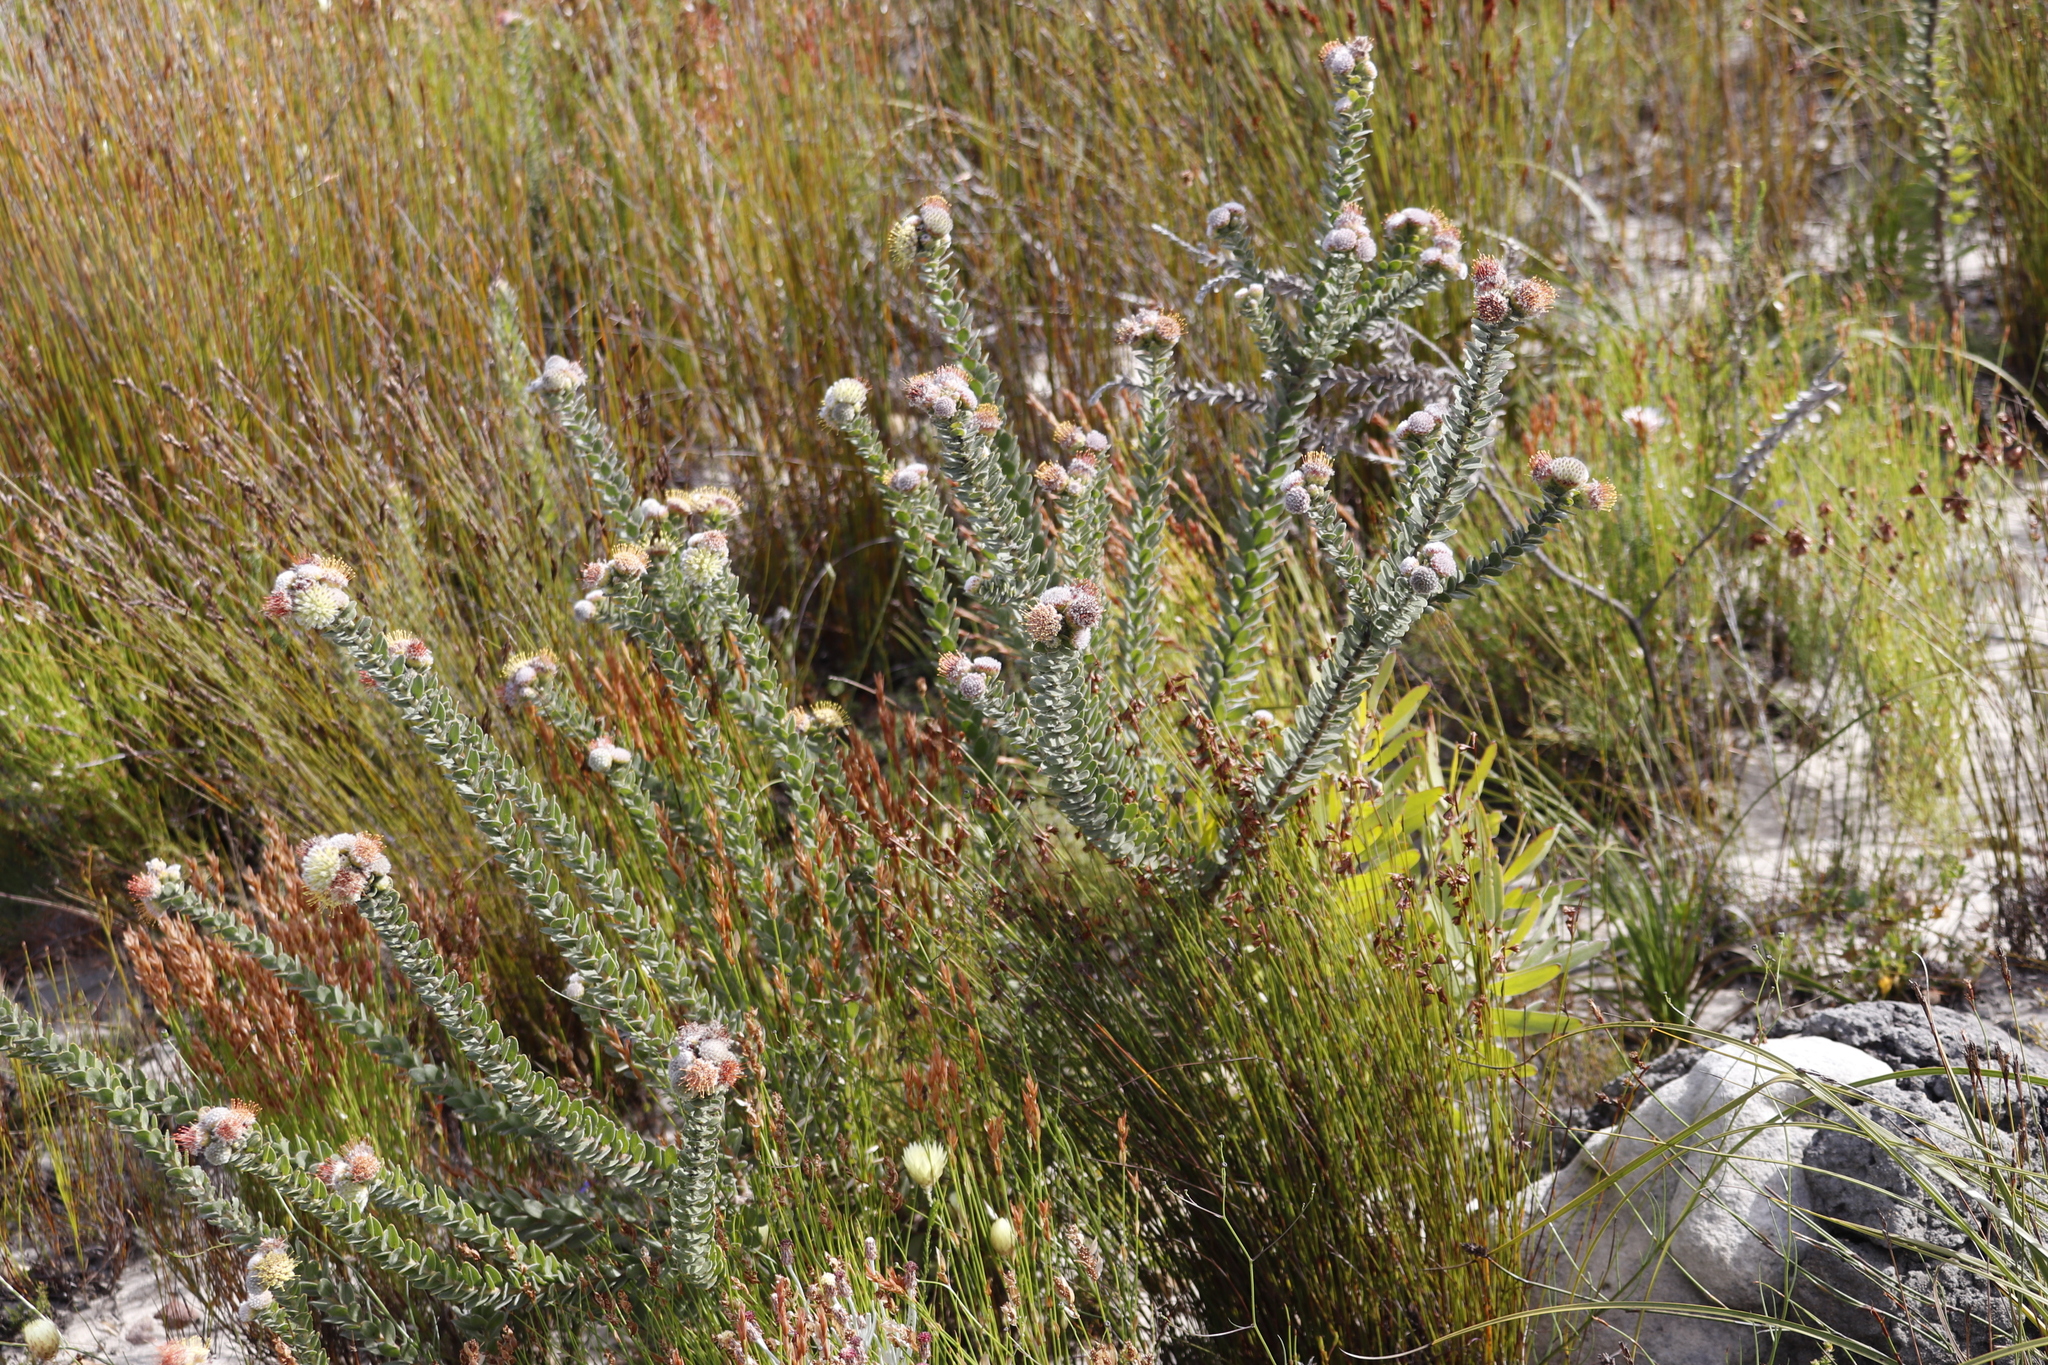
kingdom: Plantae
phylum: Tracheophyta
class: Magnoliopsida
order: Proteales
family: Proteaceae
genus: Leucospermum
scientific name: Leucospermum truncatulum
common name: Oval-leaf pincushion
